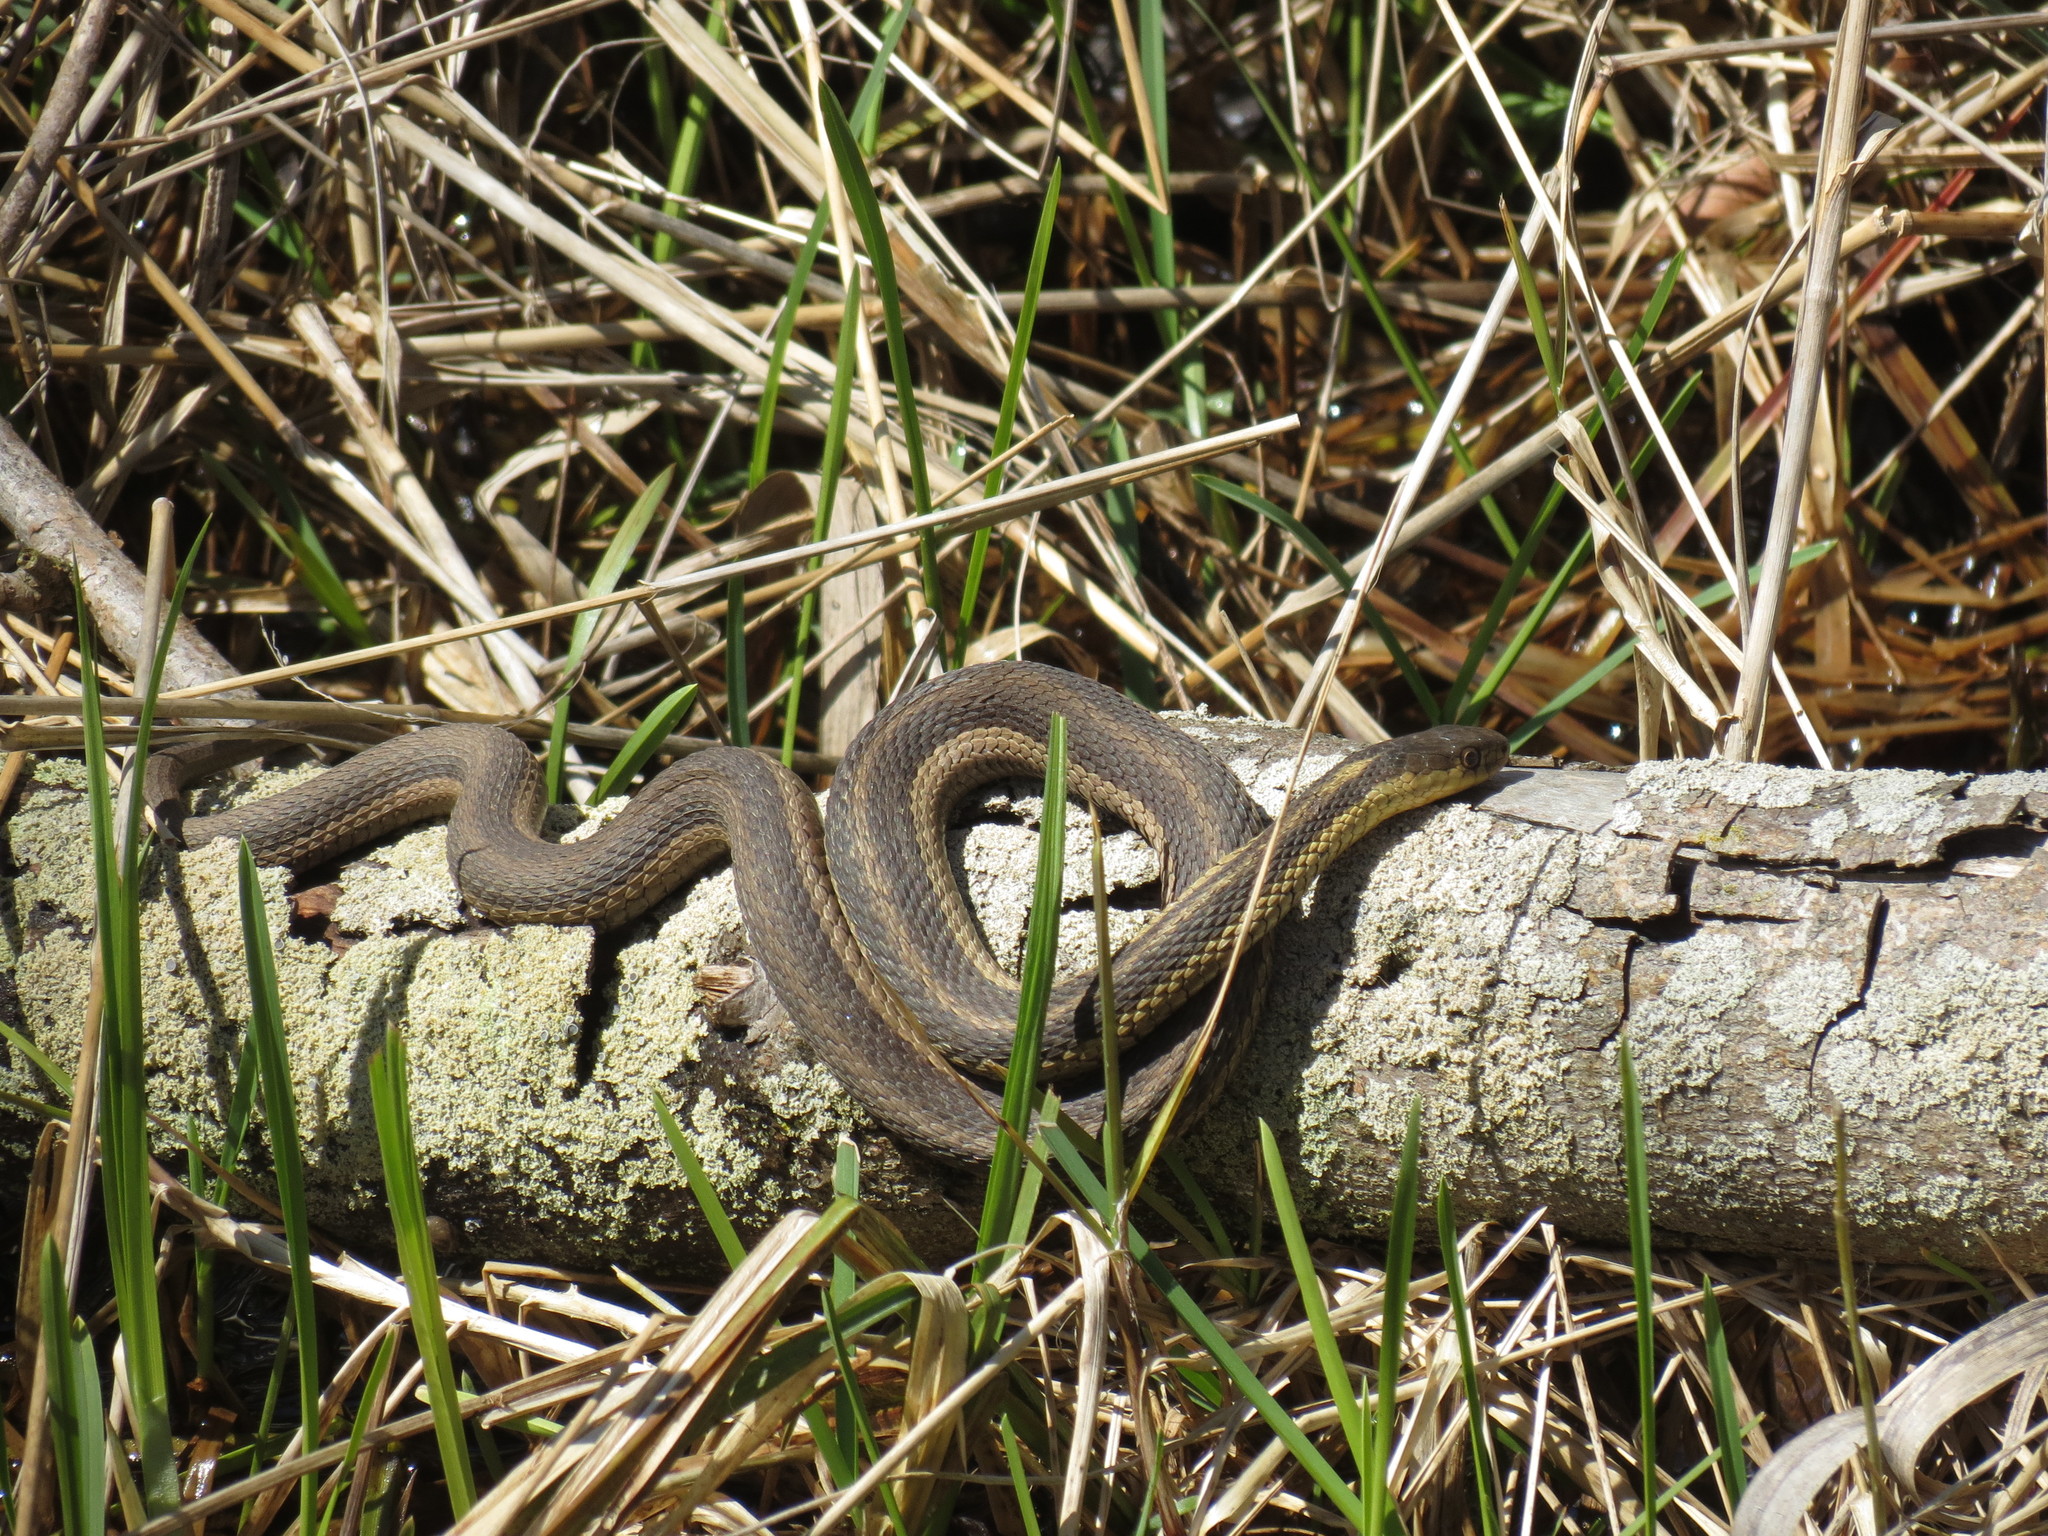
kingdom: Animalia
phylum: Chordata
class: Squamata
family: Colubridae
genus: Thamnophis
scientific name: Thamnophis sirtalis
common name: Common garter snake
